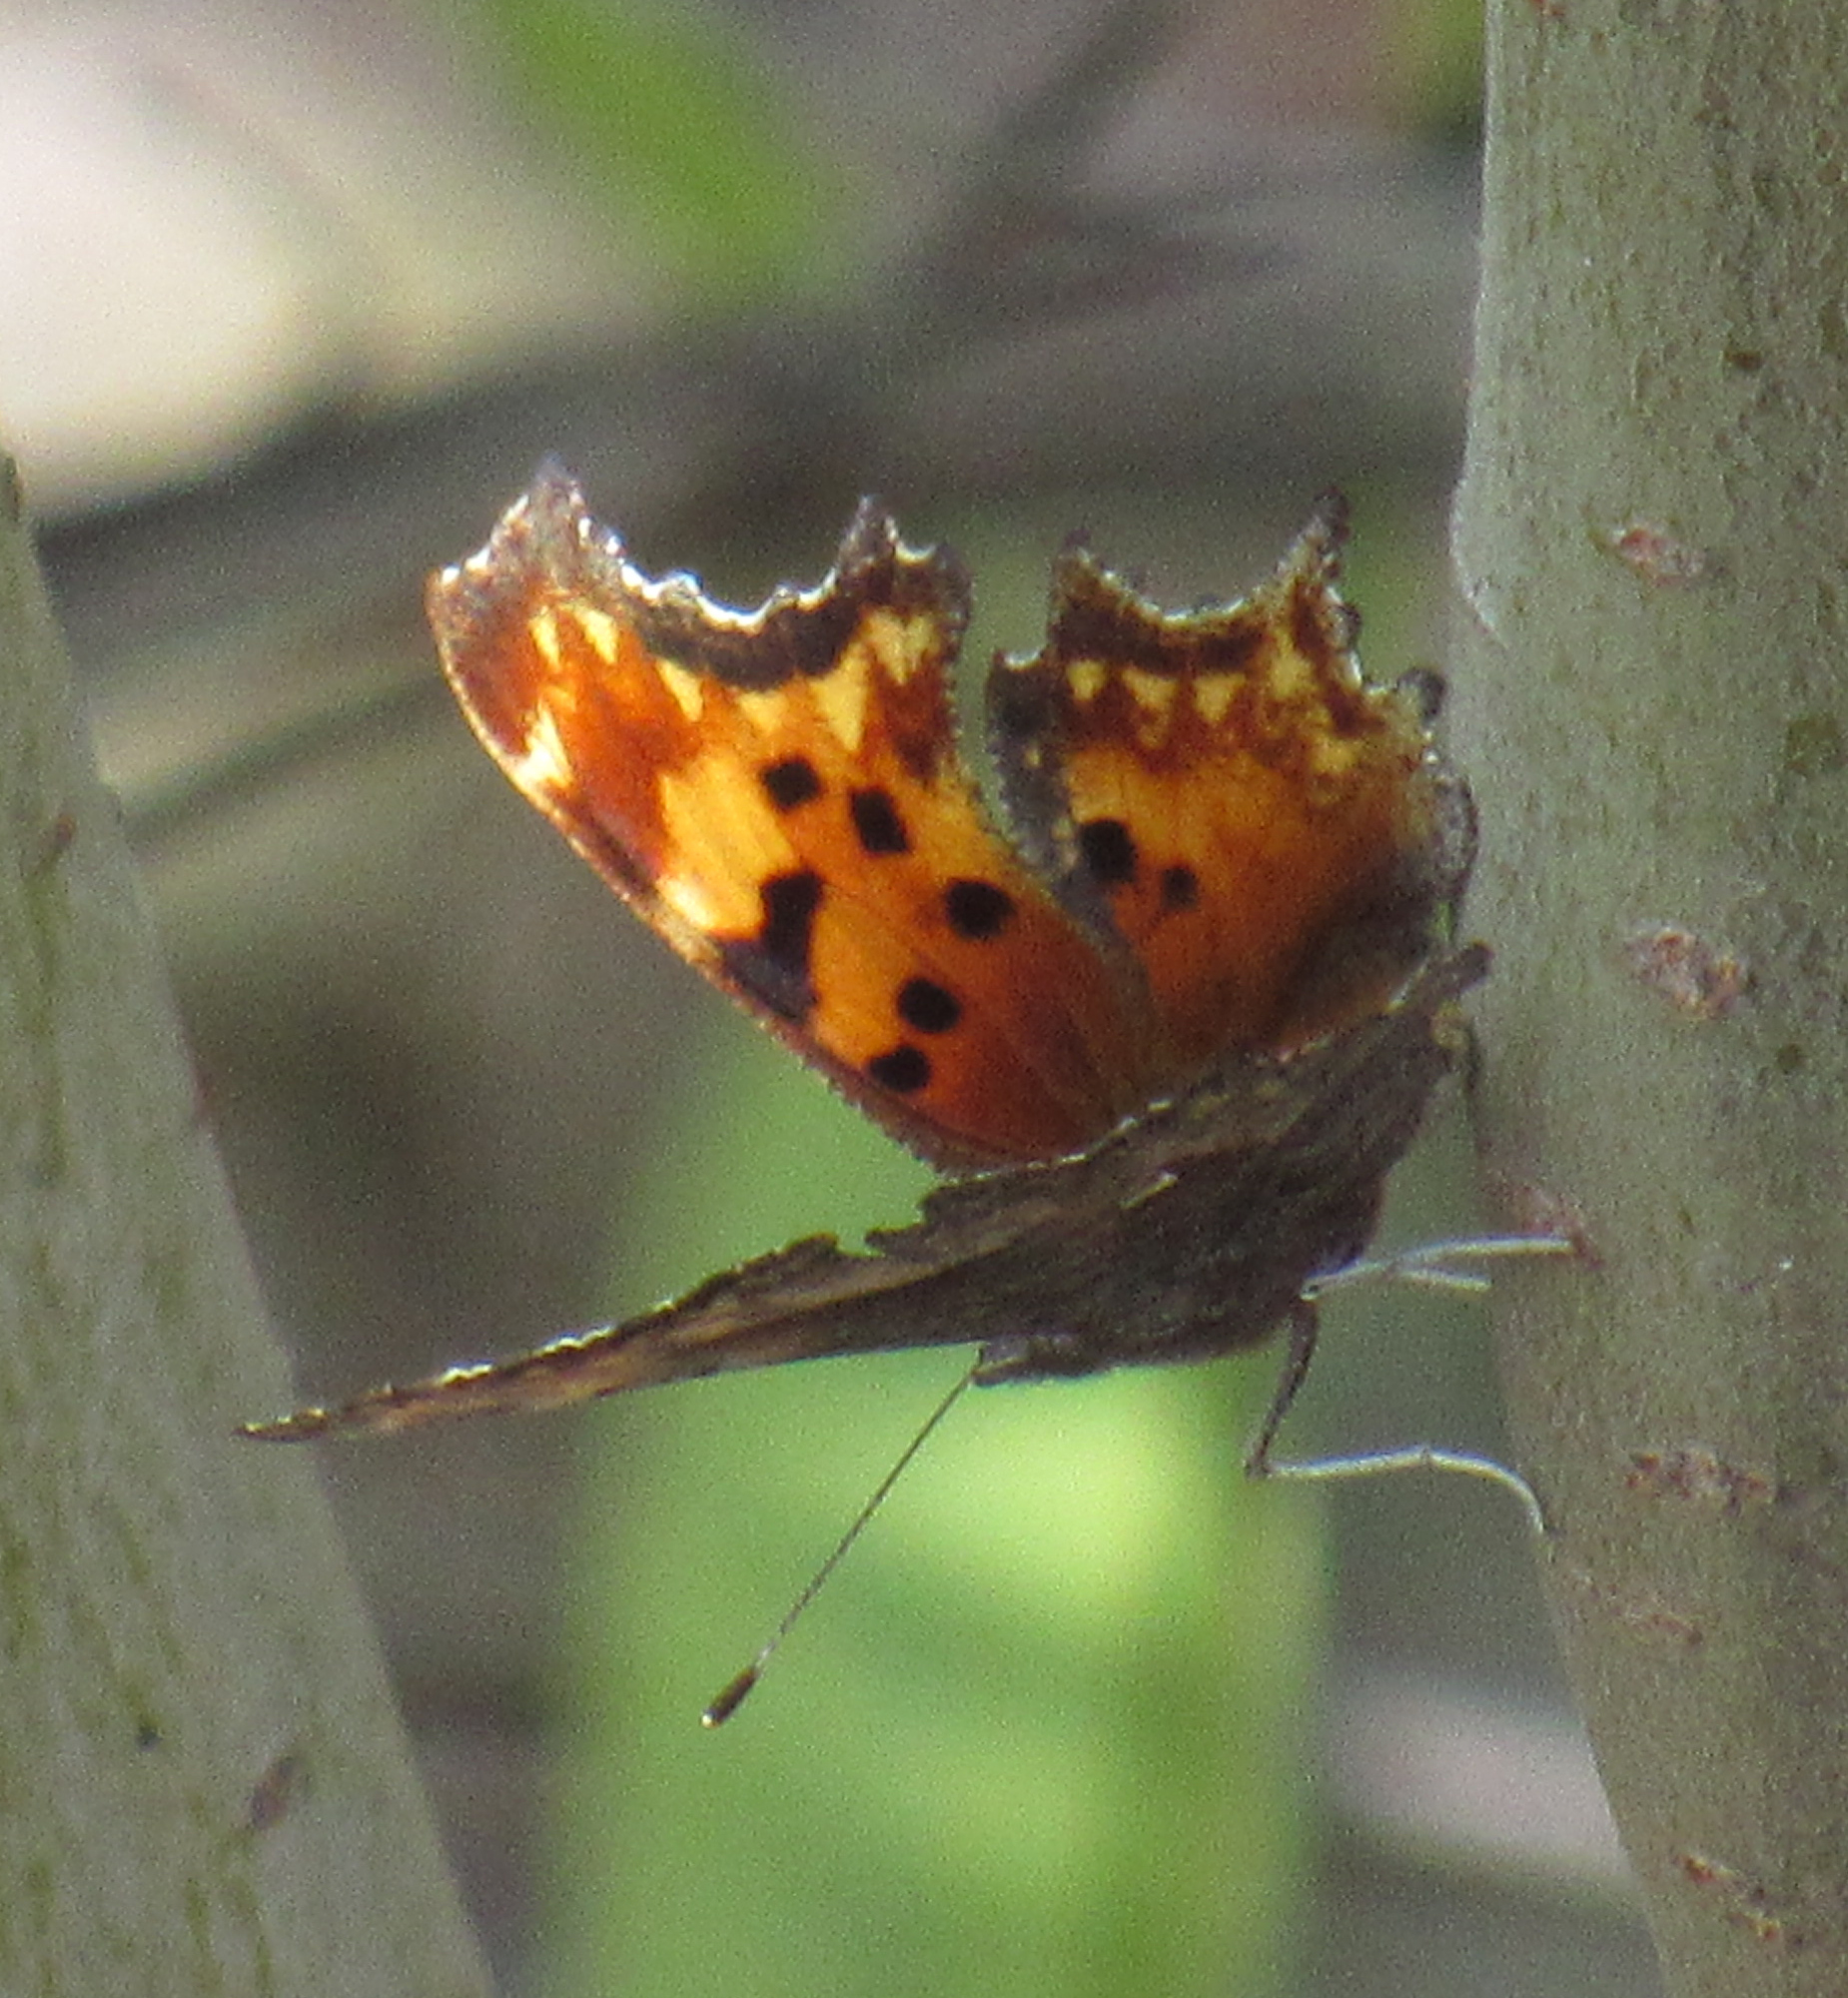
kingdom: Animalia
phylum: Arthropoda
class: Insecta
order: Lepidoptera
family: Nymphalidae
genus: Polygonia
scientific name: Polygonia gracilis
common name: Hoary comma
